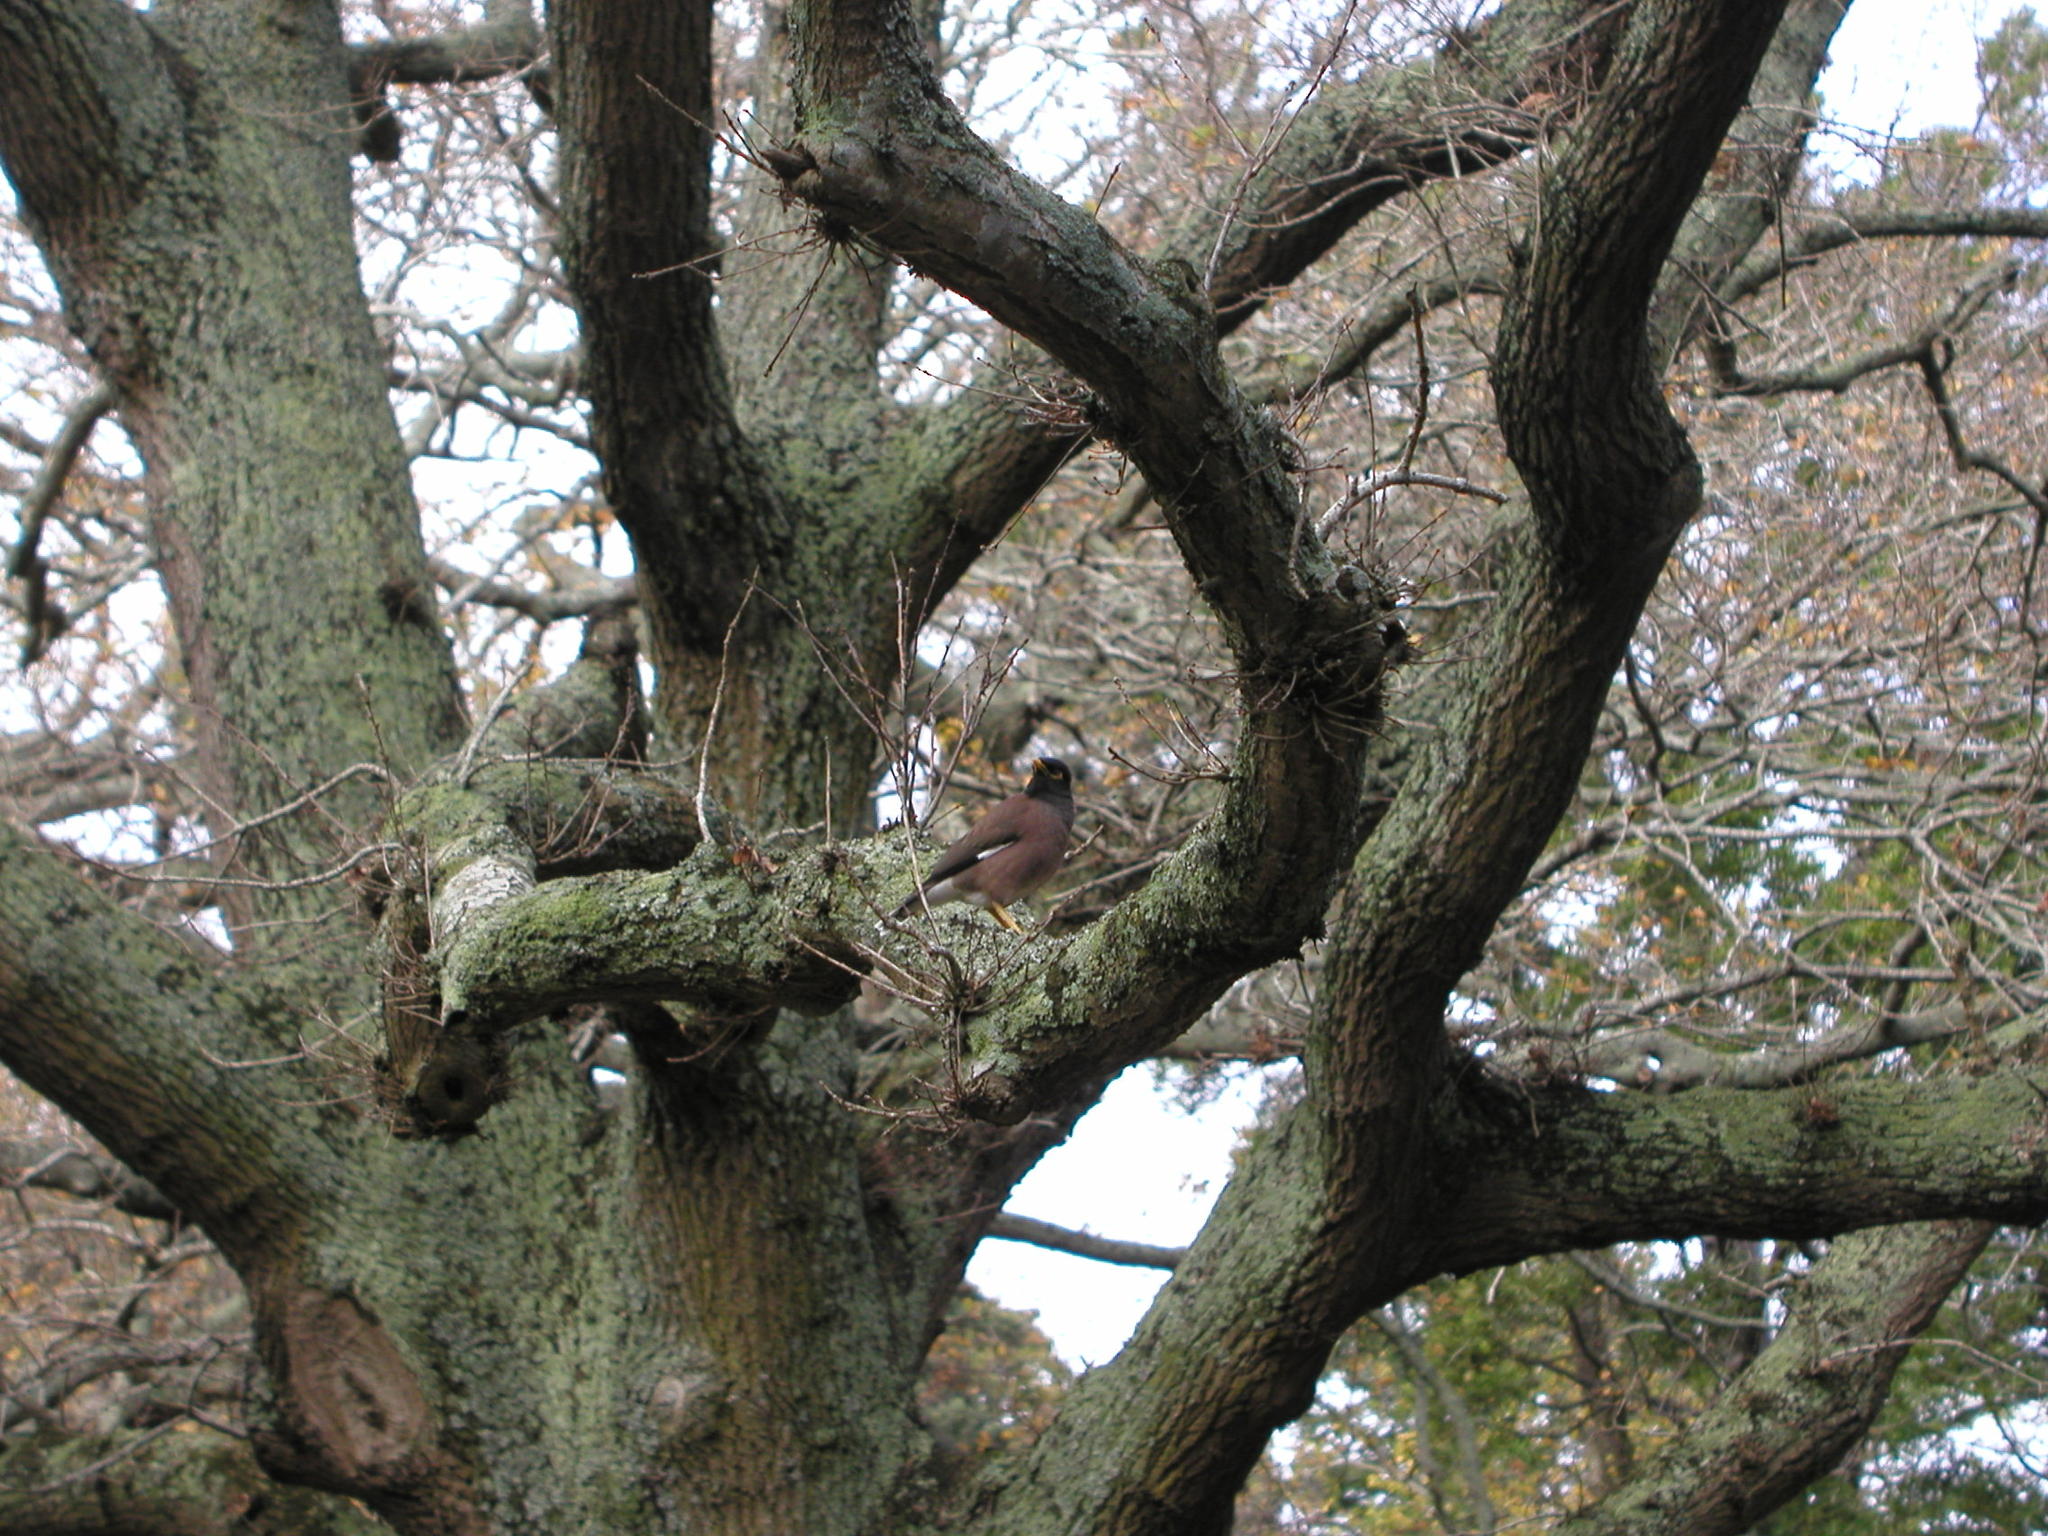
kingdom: Animalia
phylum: Chordata
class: Aves
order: Passeriformes
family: Sturnidae
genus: Acridotheres
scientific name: Acridotheres tristis
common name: Common myna
